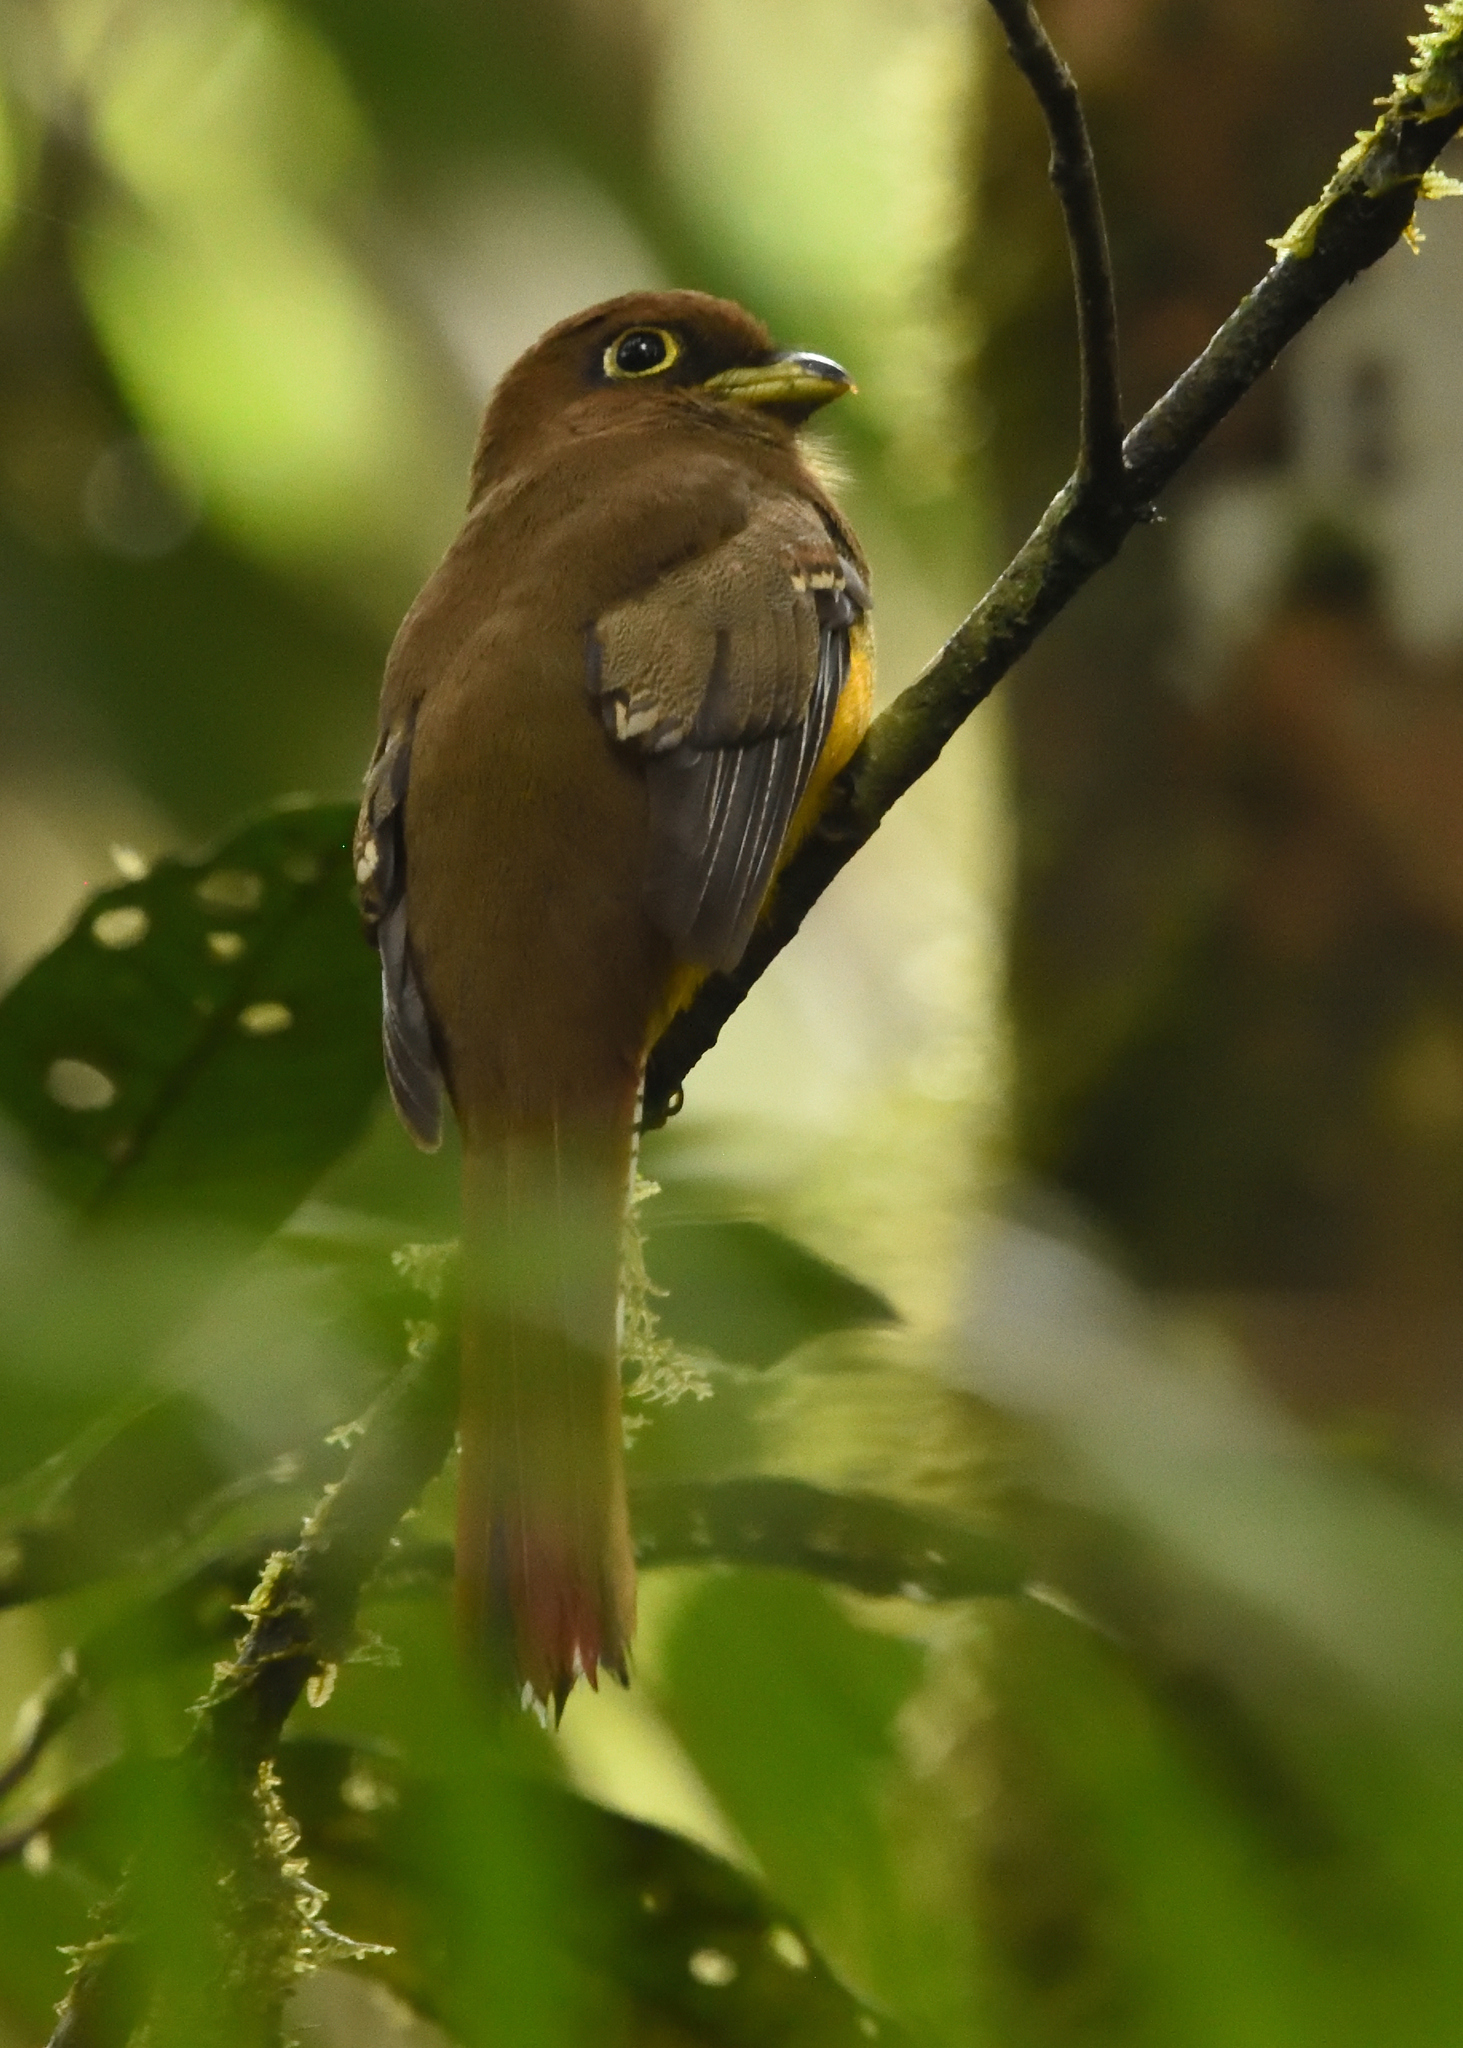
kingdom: Animalia
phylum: Chordata
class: Aves
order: Trogoniformes
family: Trogonidae
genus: Trogon
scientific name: Trogon rufus
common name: Black-throated trogon
